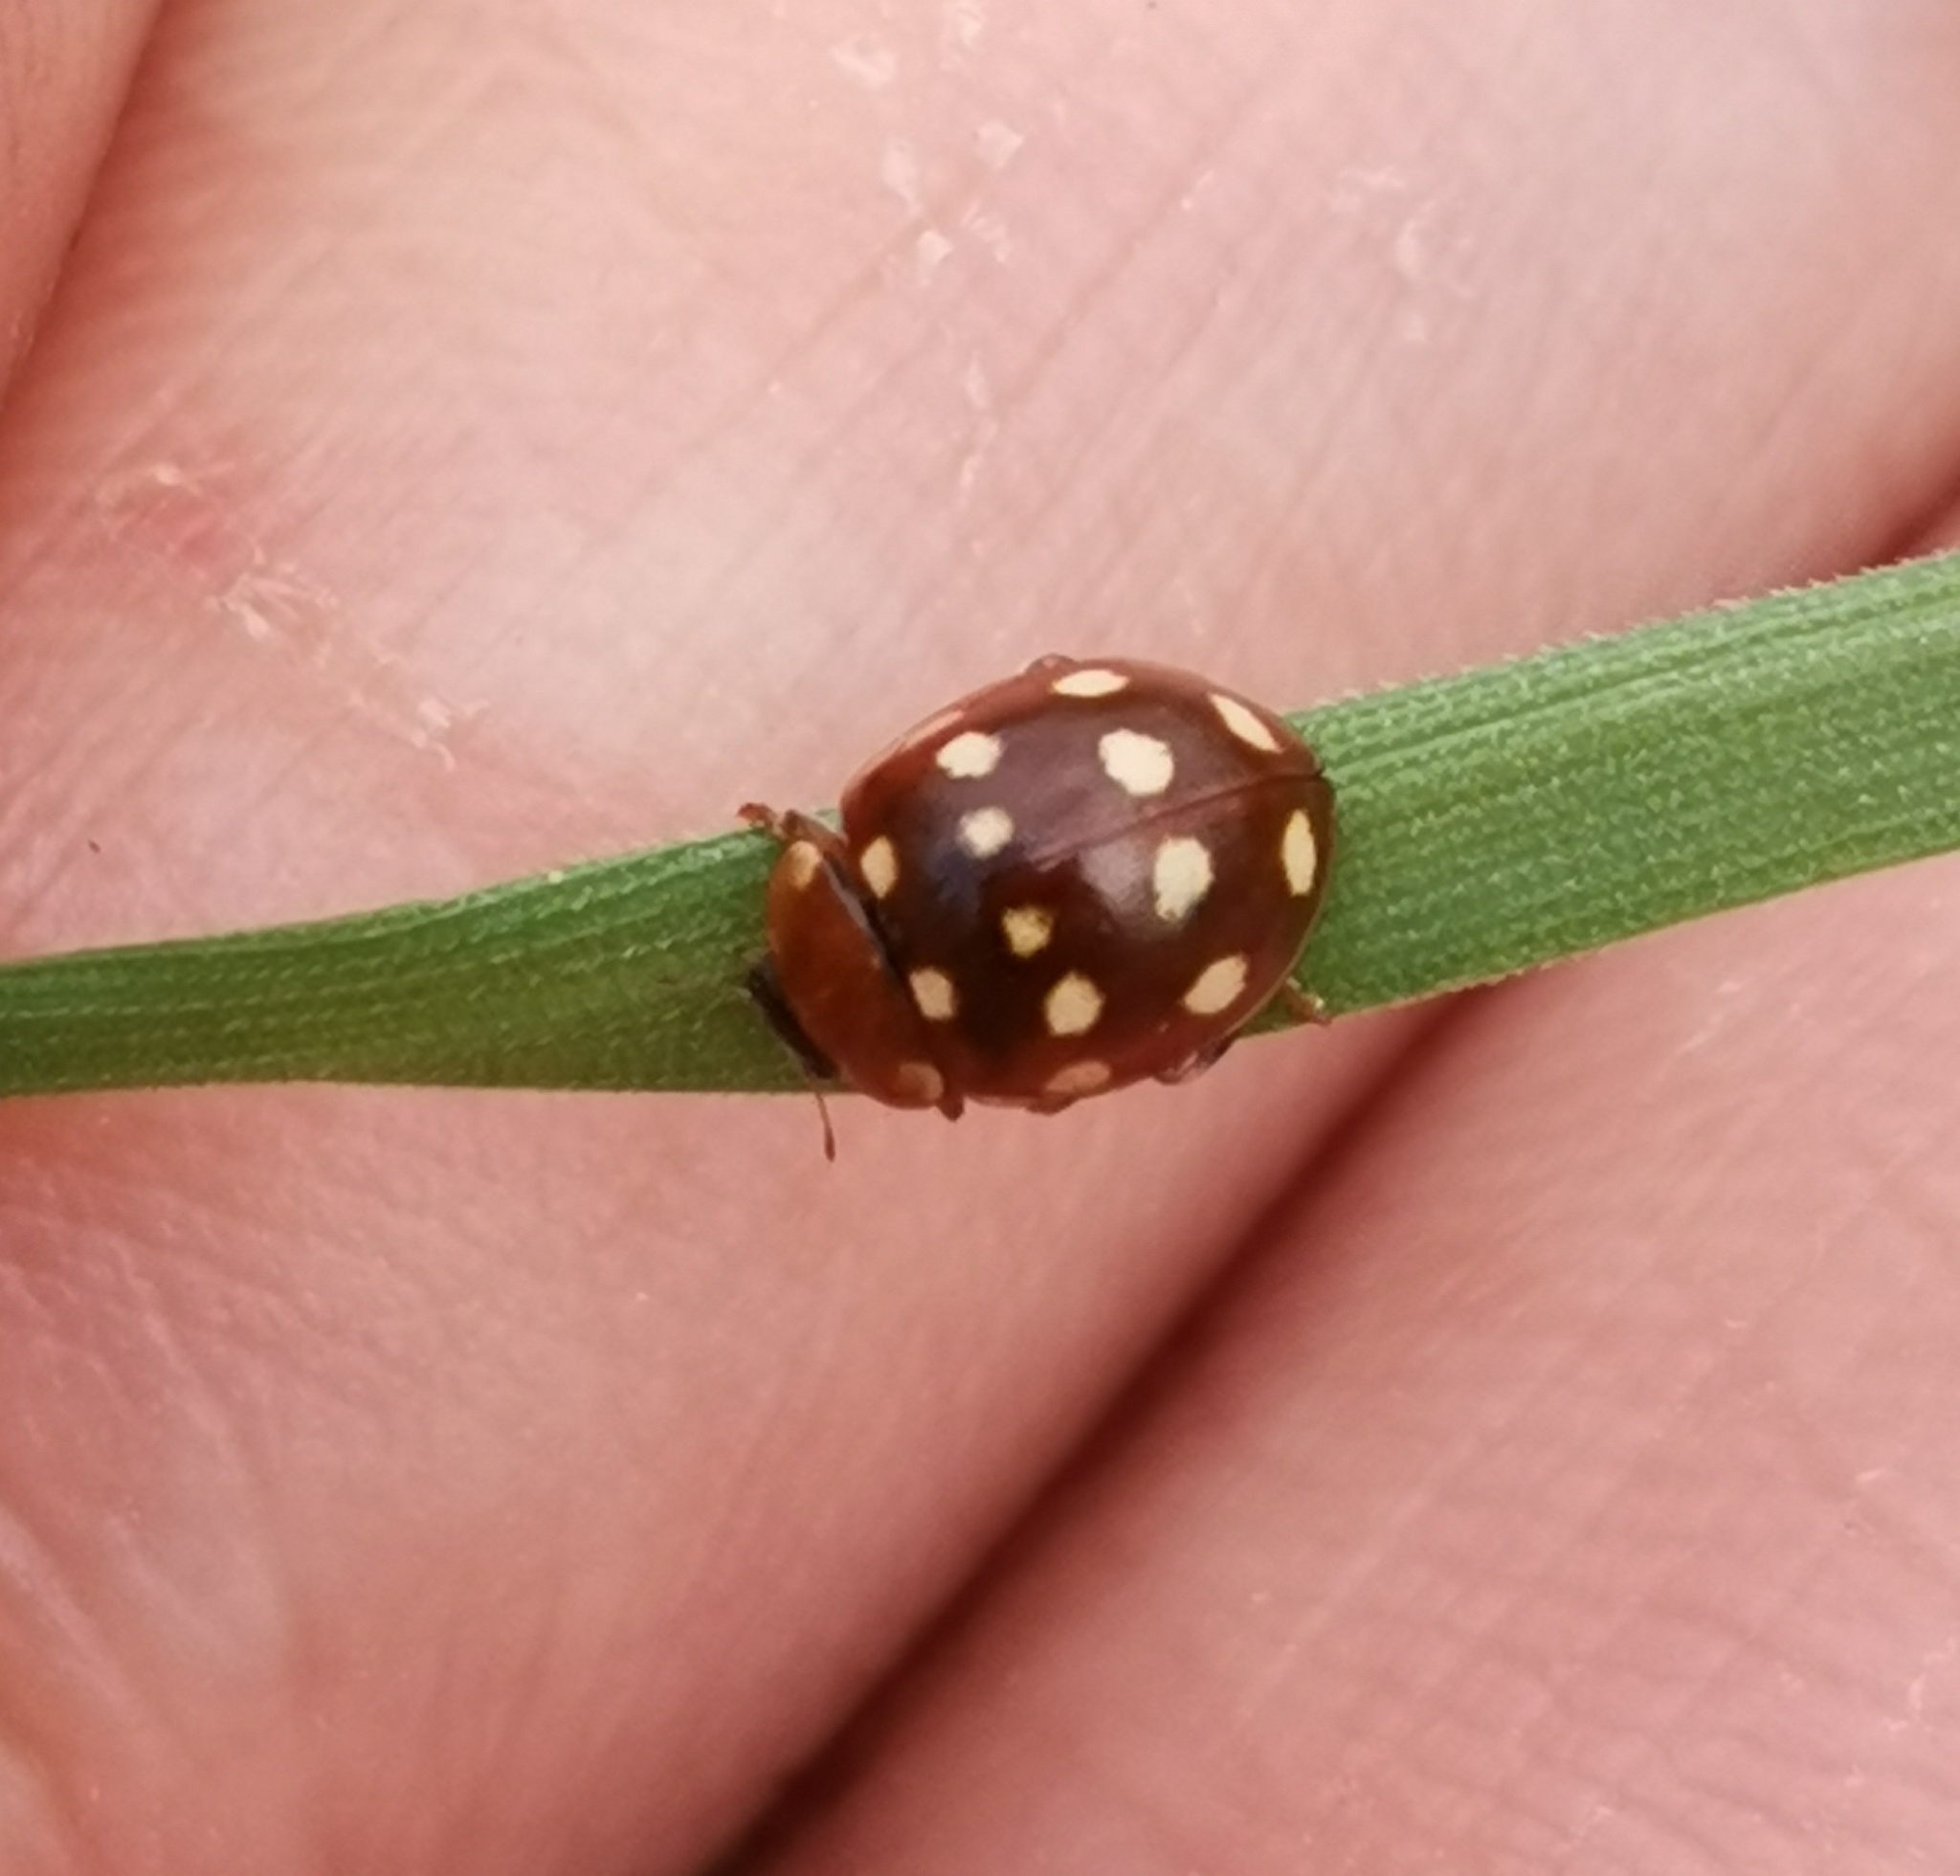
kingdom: Animalia
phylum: Arthropoda
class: Insecta
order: Coleoptera
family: Coccinellidae
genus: Calvia
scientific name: Calvia quatuordecimguttata
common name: Cream-spot ladybird
